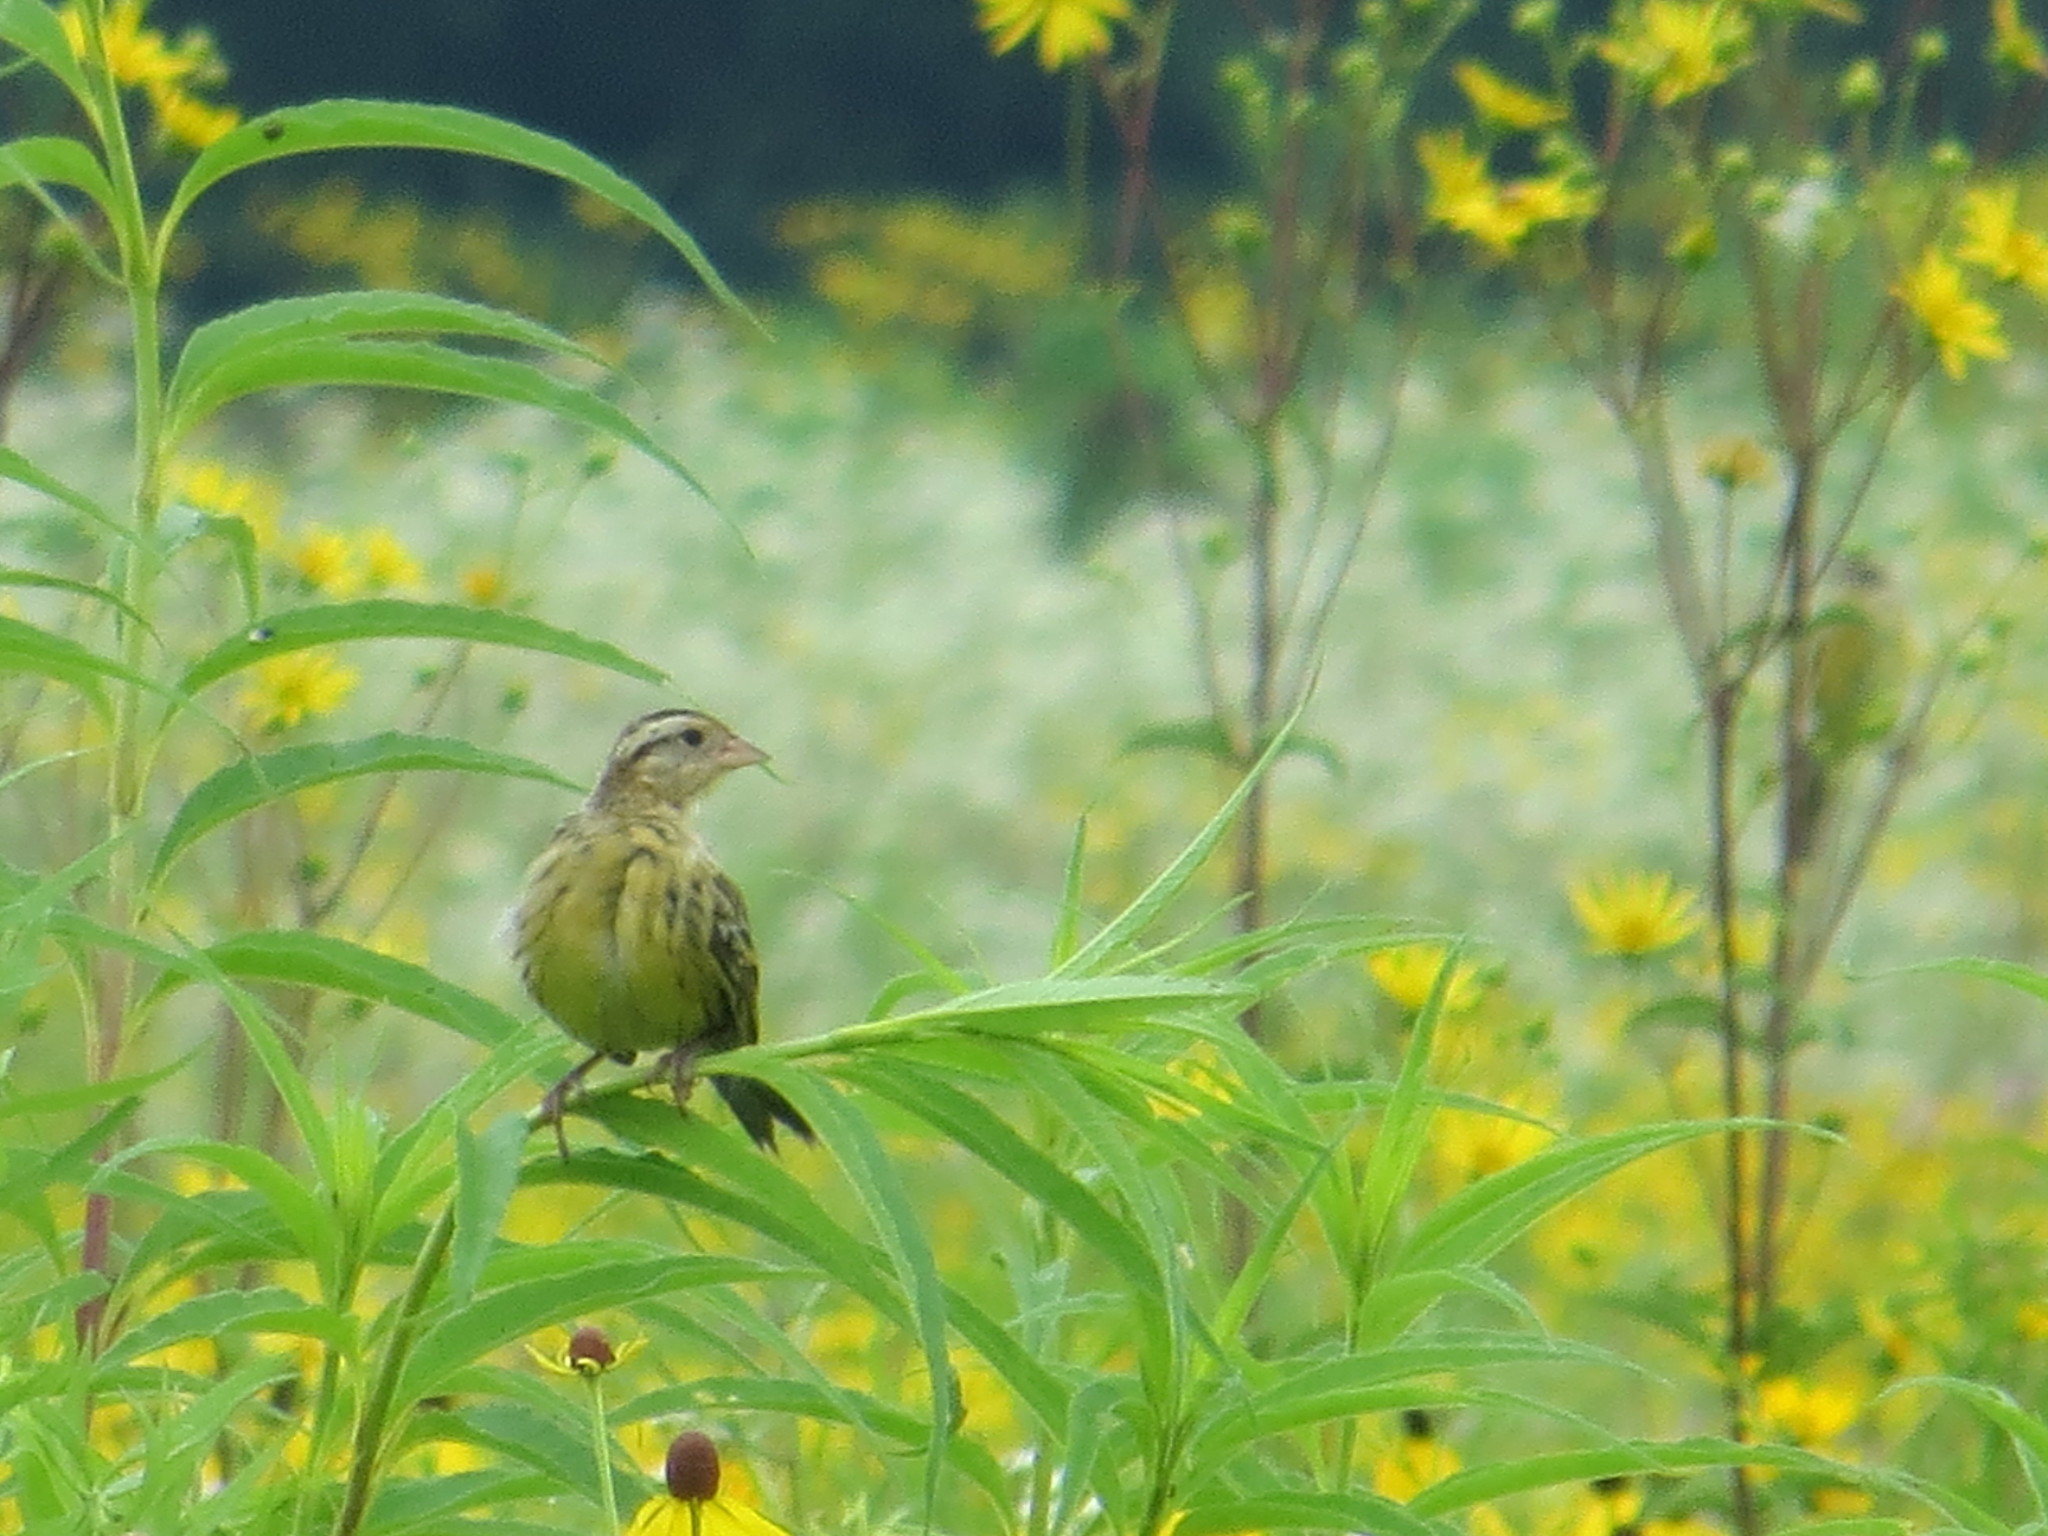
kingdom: Animalia
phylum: Chordata
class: Aves
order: Passeriformes
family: Icteridae
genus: Dolichonyx
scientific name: Dolichonyx oryzivorus
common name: Bobolink
